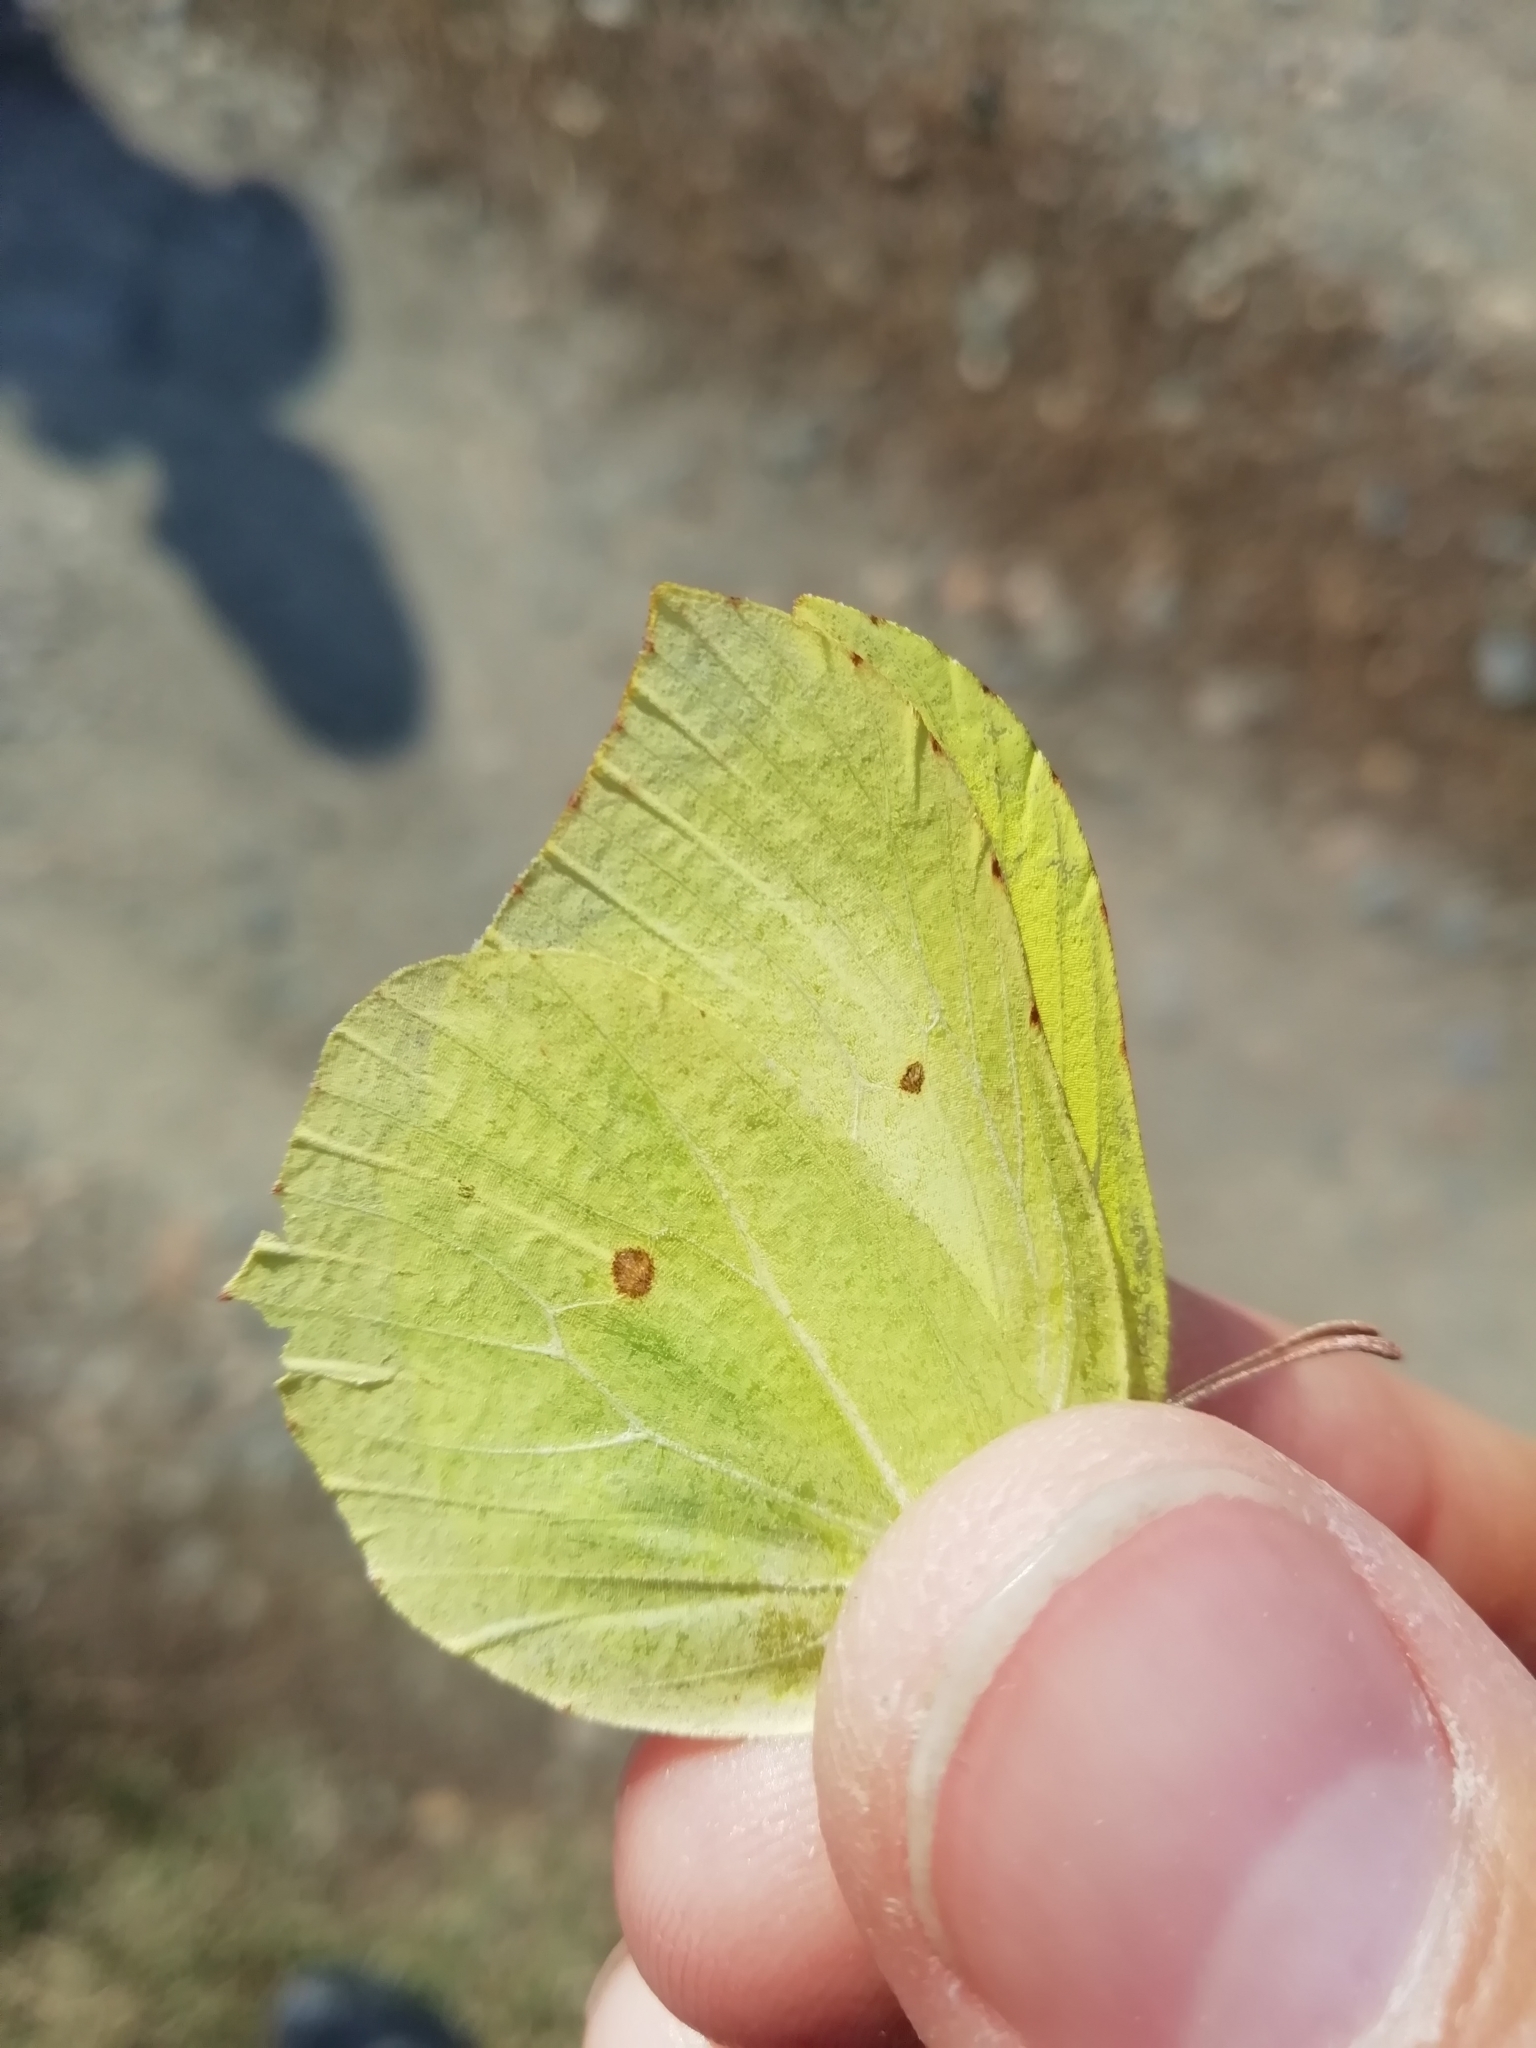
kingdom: Animalia
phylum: Arthropoda
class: Insecta
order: Lepidoptera
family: Pieridae
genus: Gonepteryx
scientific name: Gonepteryx rhamni
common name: Brimstone
